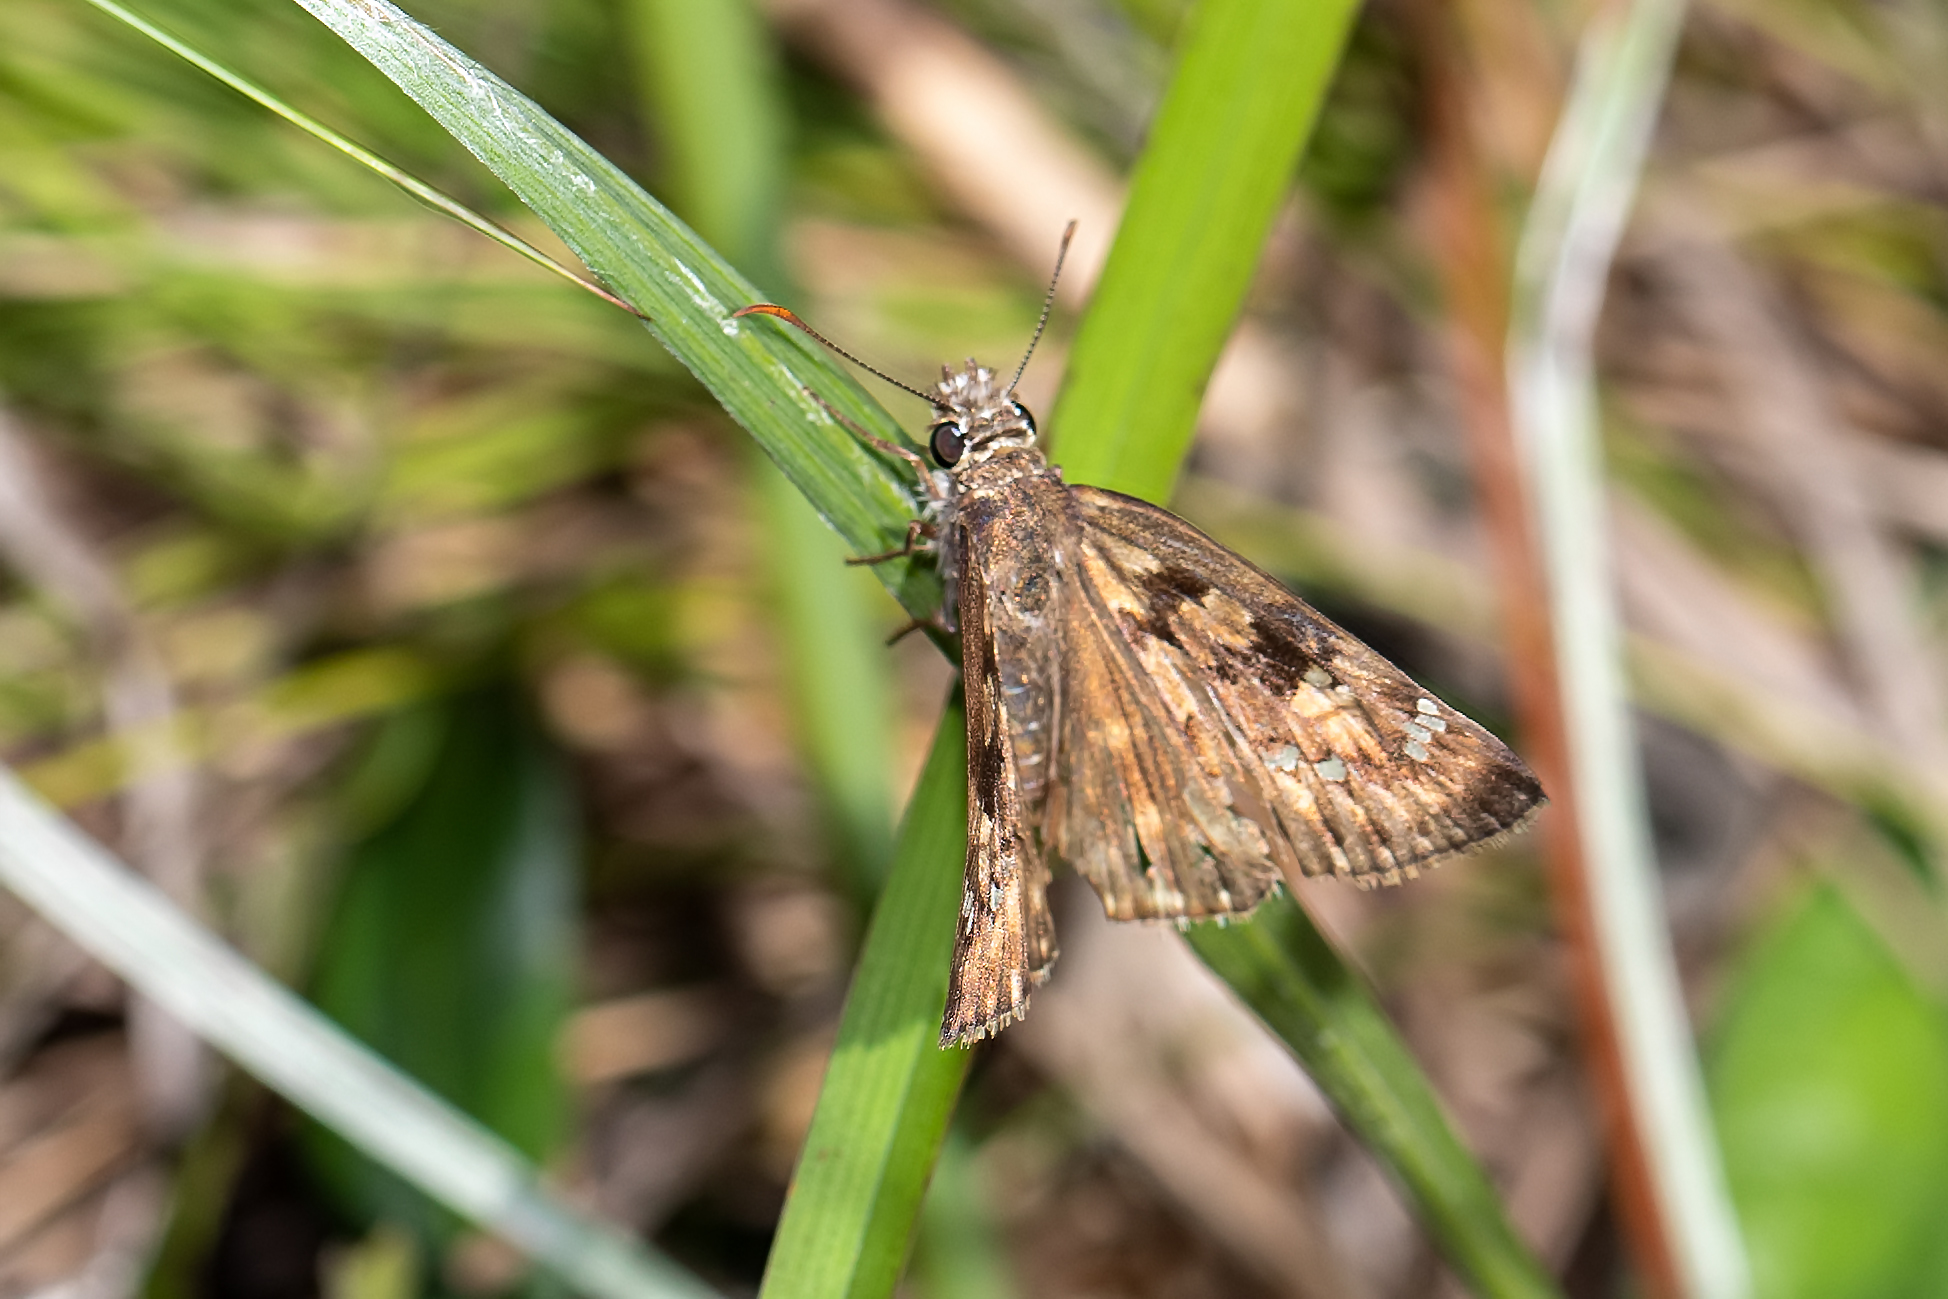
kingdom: Animalia
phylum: Arthropoda
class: Insecta
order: Lepidoptera
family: Hesperiidae
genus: Erynnis
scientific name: Erynnis horatius
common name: Horace's duskywing
